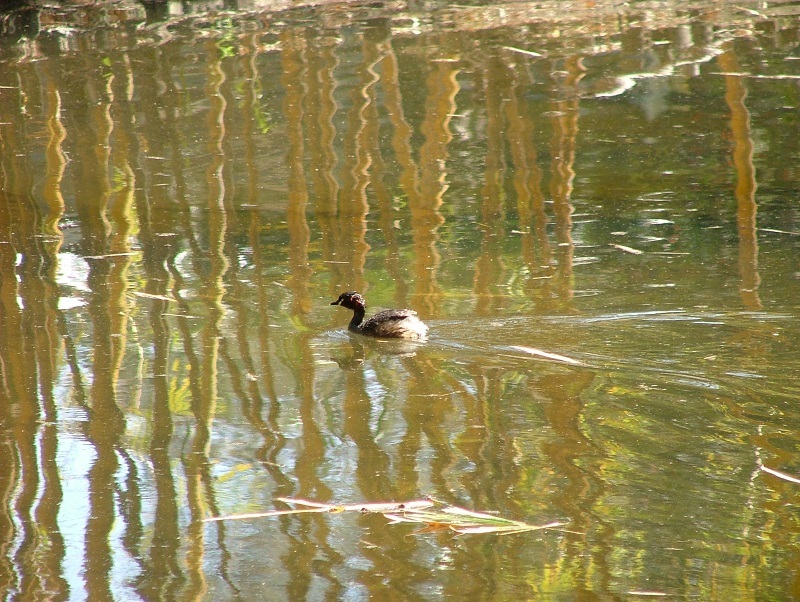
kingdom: Animalia
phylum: Chordata
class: Aves
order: Podicipediformes
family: Podicipedidae
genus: Tachybaptus
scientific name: Tachybaptus novaehollandiae
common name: Australasian grebe
